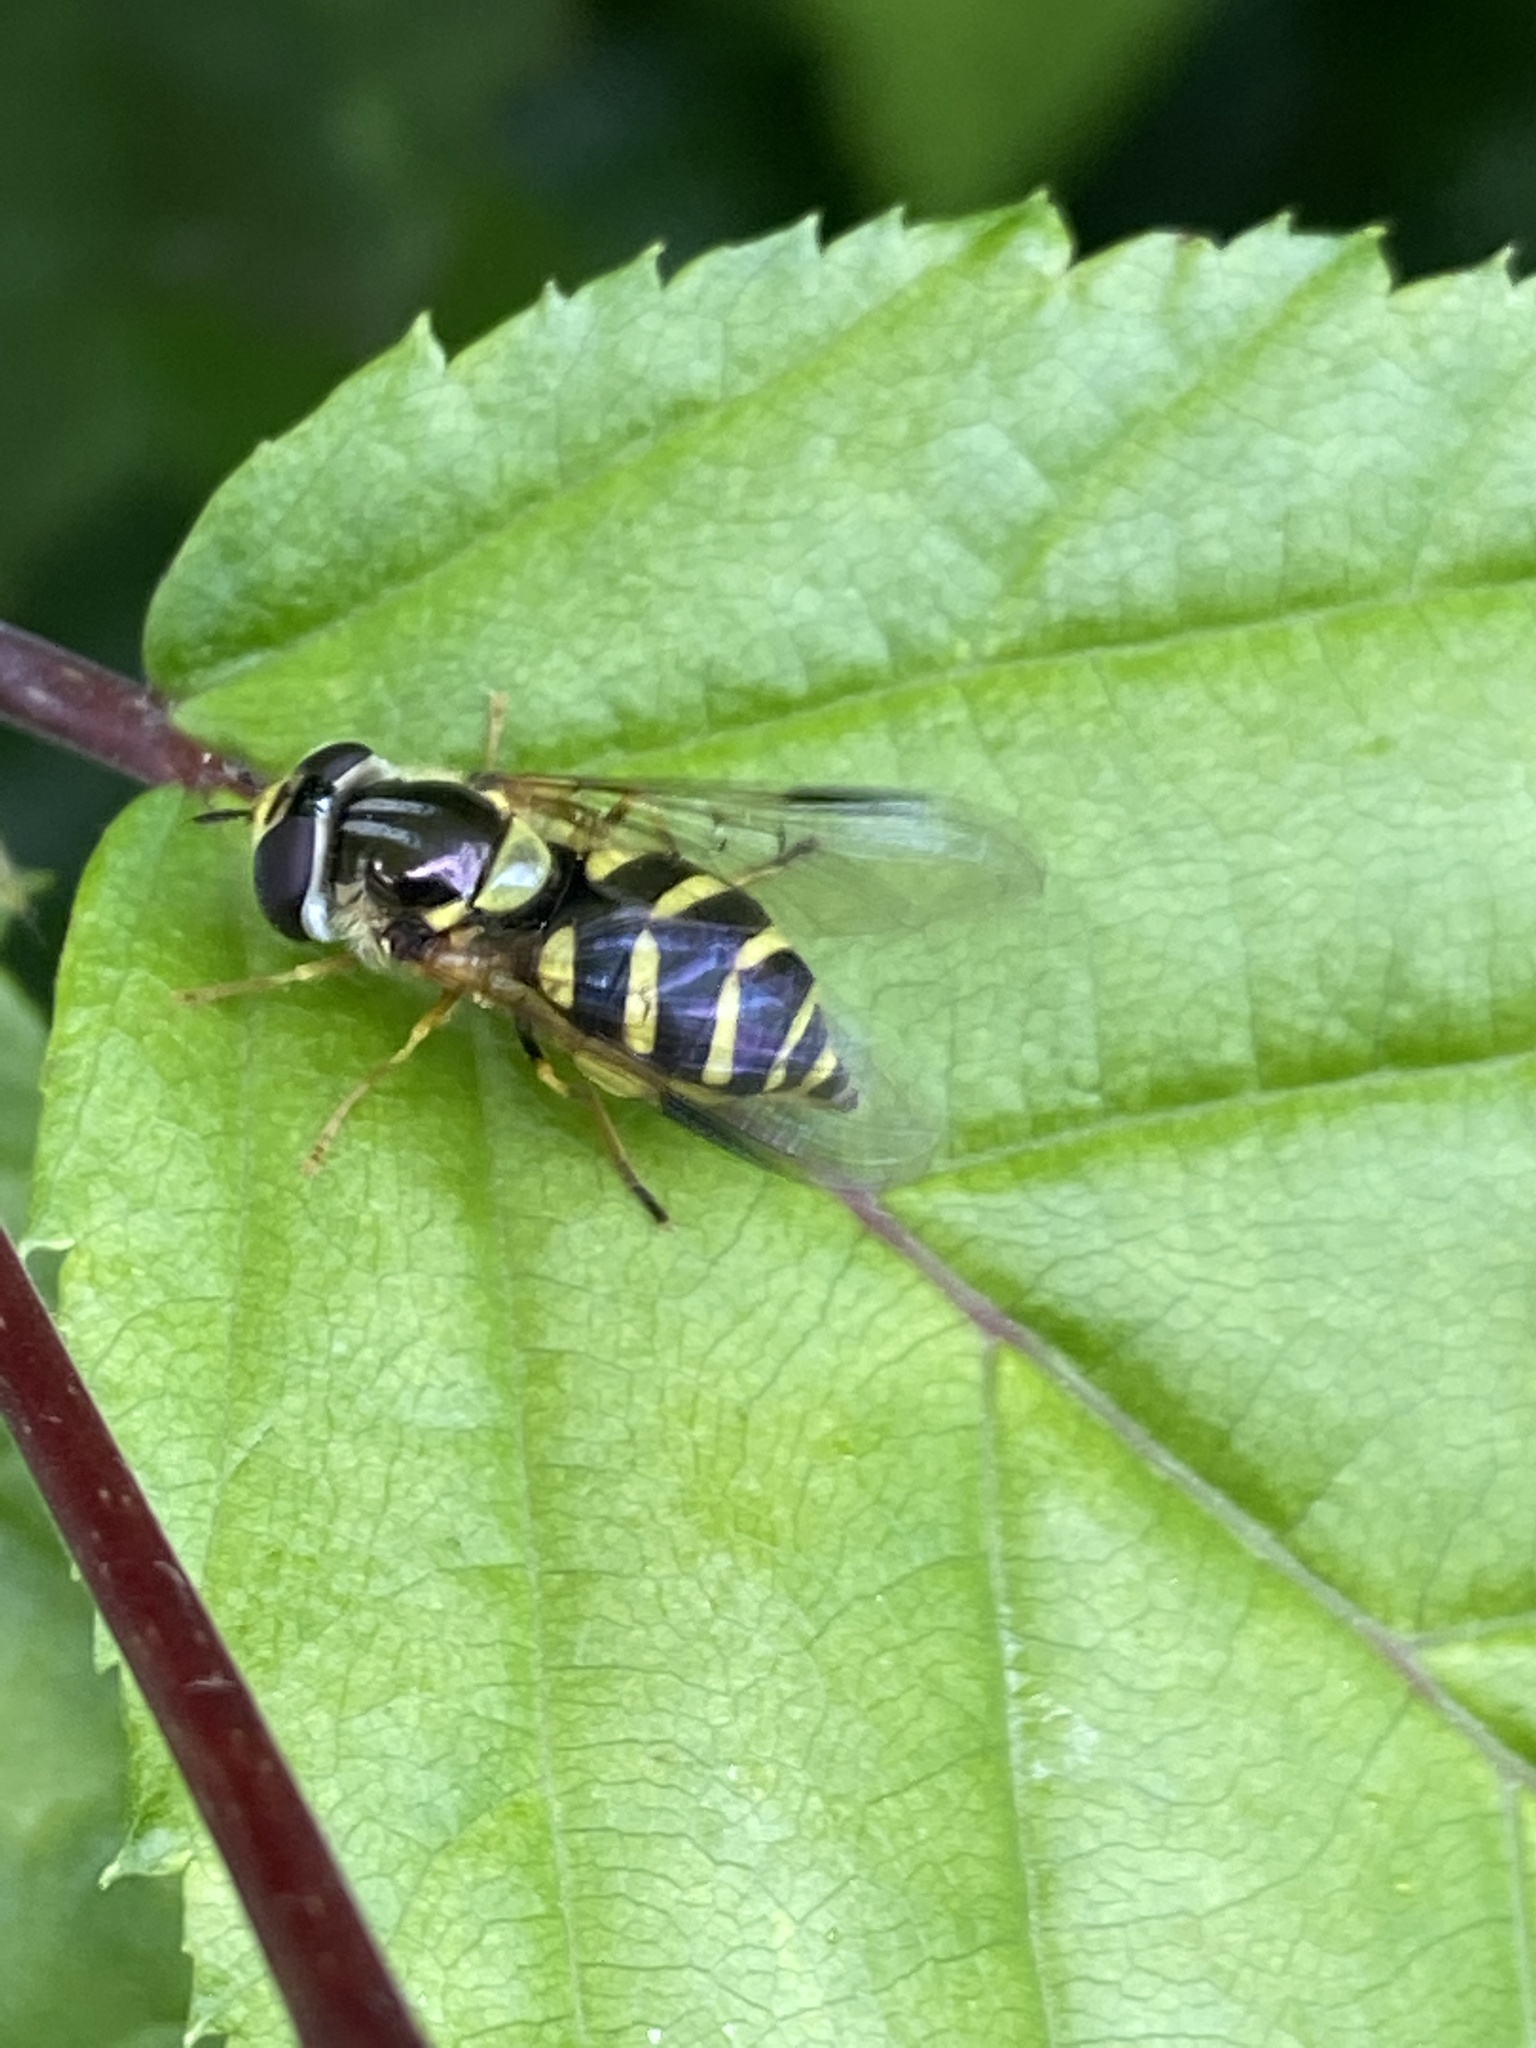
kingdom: Animalia
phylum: Arthropoda
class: Insecta
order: Diptera
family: Syrphidae
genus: Dasysyrphus
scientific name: Dasysyrphus albostriatus
